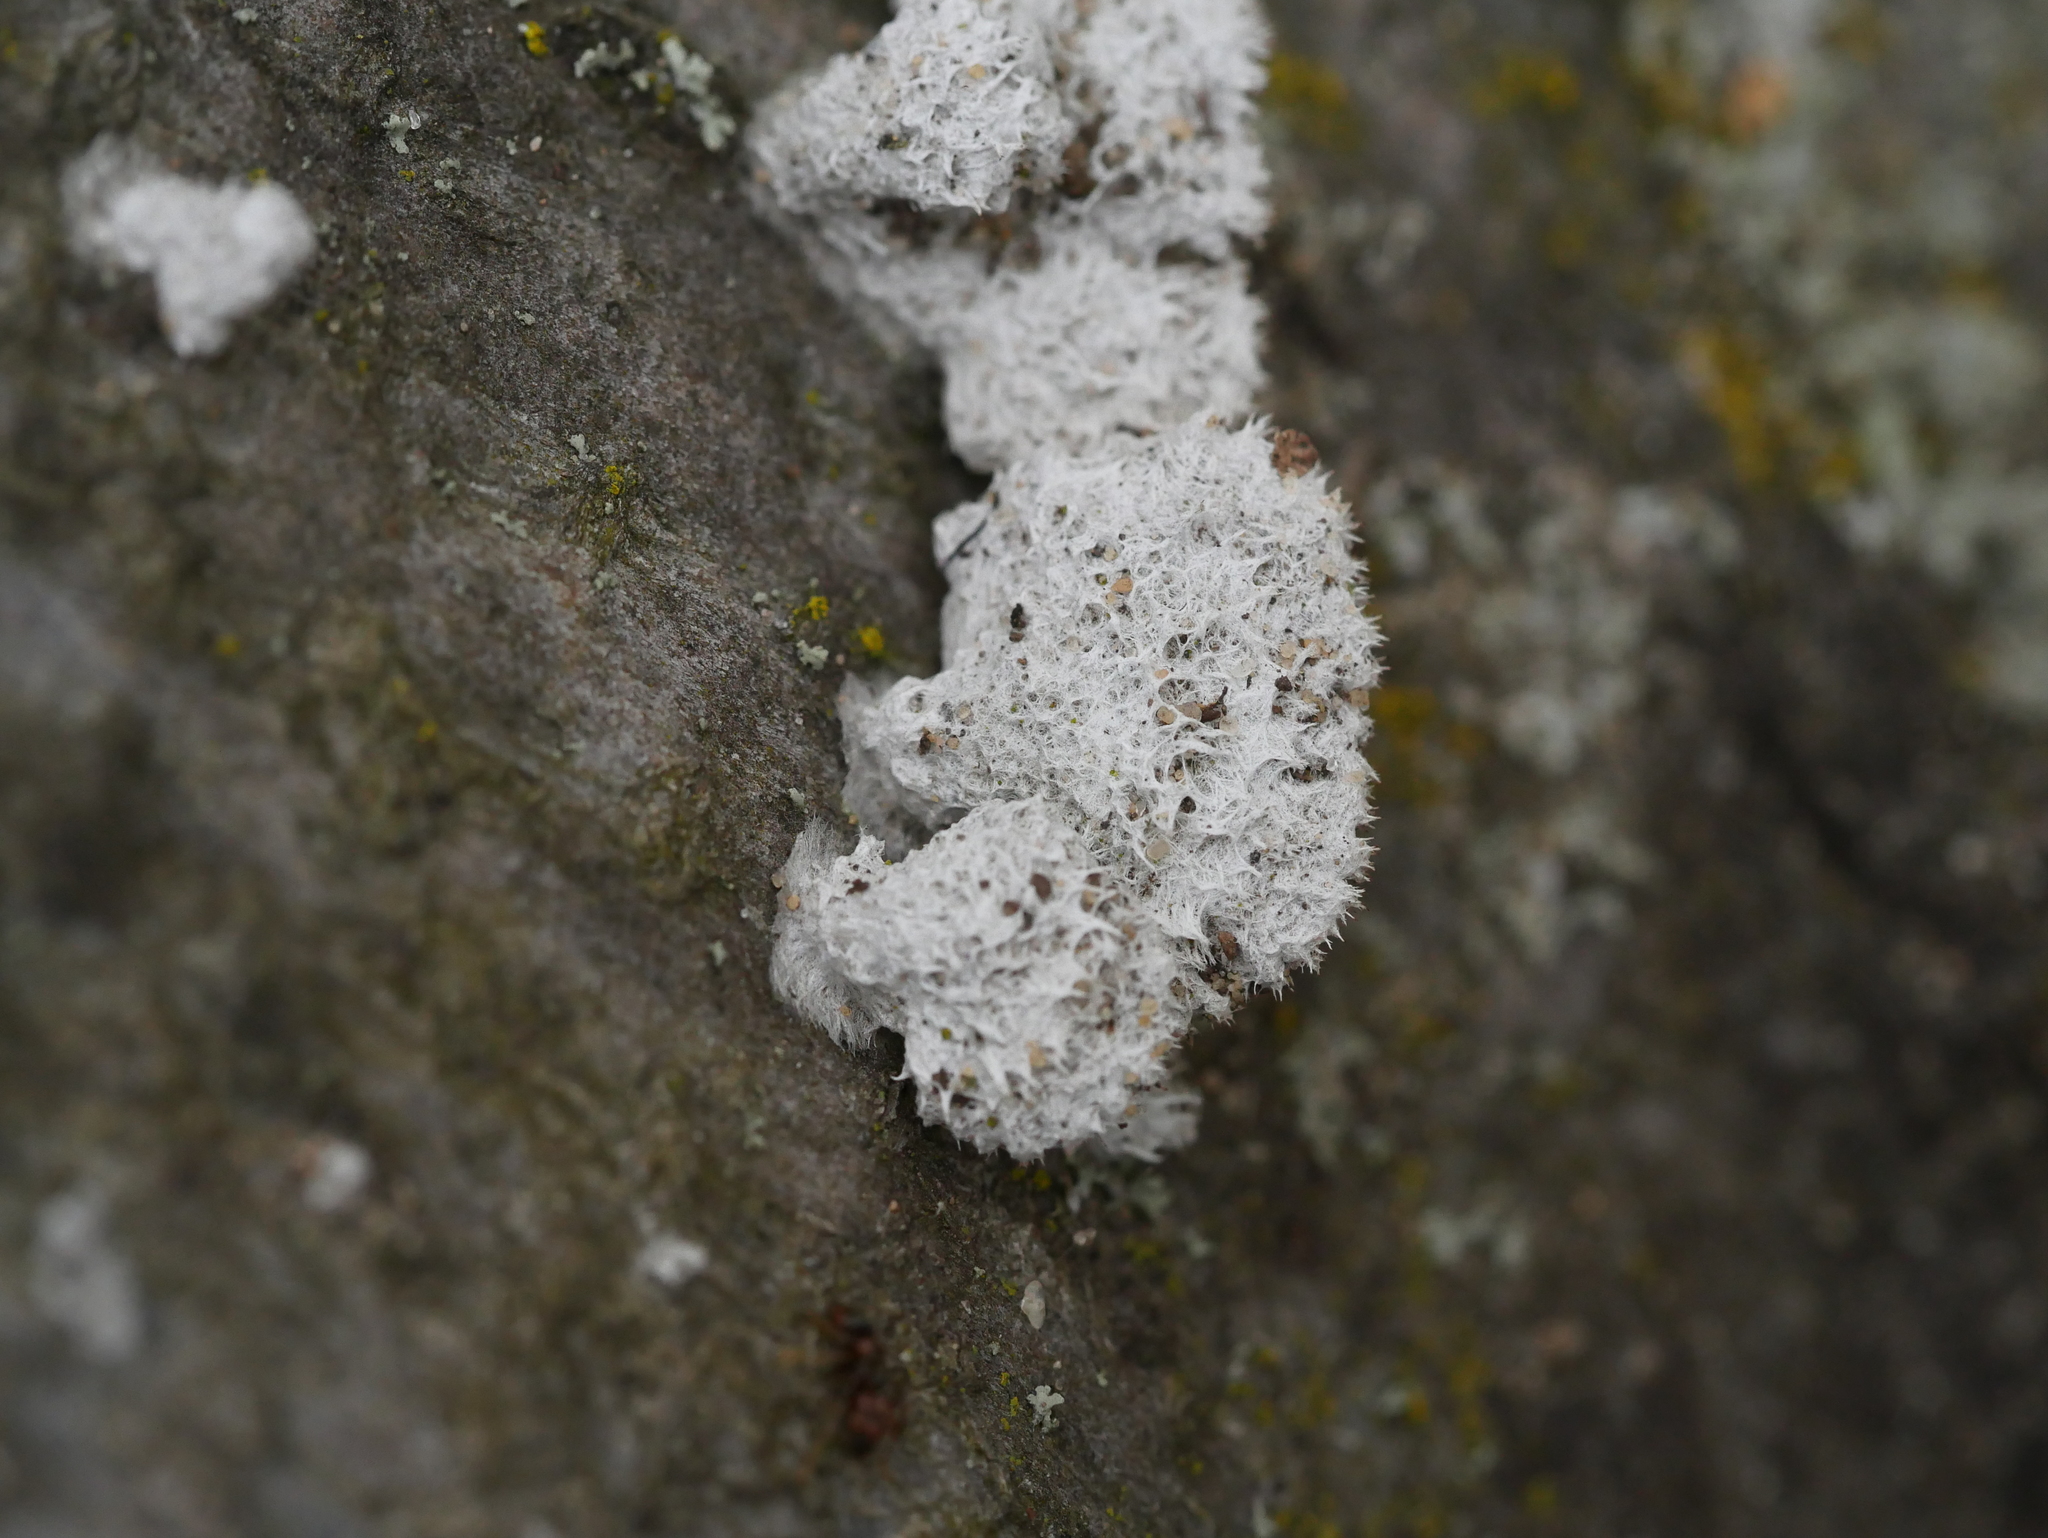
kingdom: Fungi
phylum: Basidiomycota
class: Agaricomycetes
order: Agaricales
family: Schizophyllaceae
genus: Schizophyllum
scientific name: Schizophyllum commune
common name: Common porecrust
